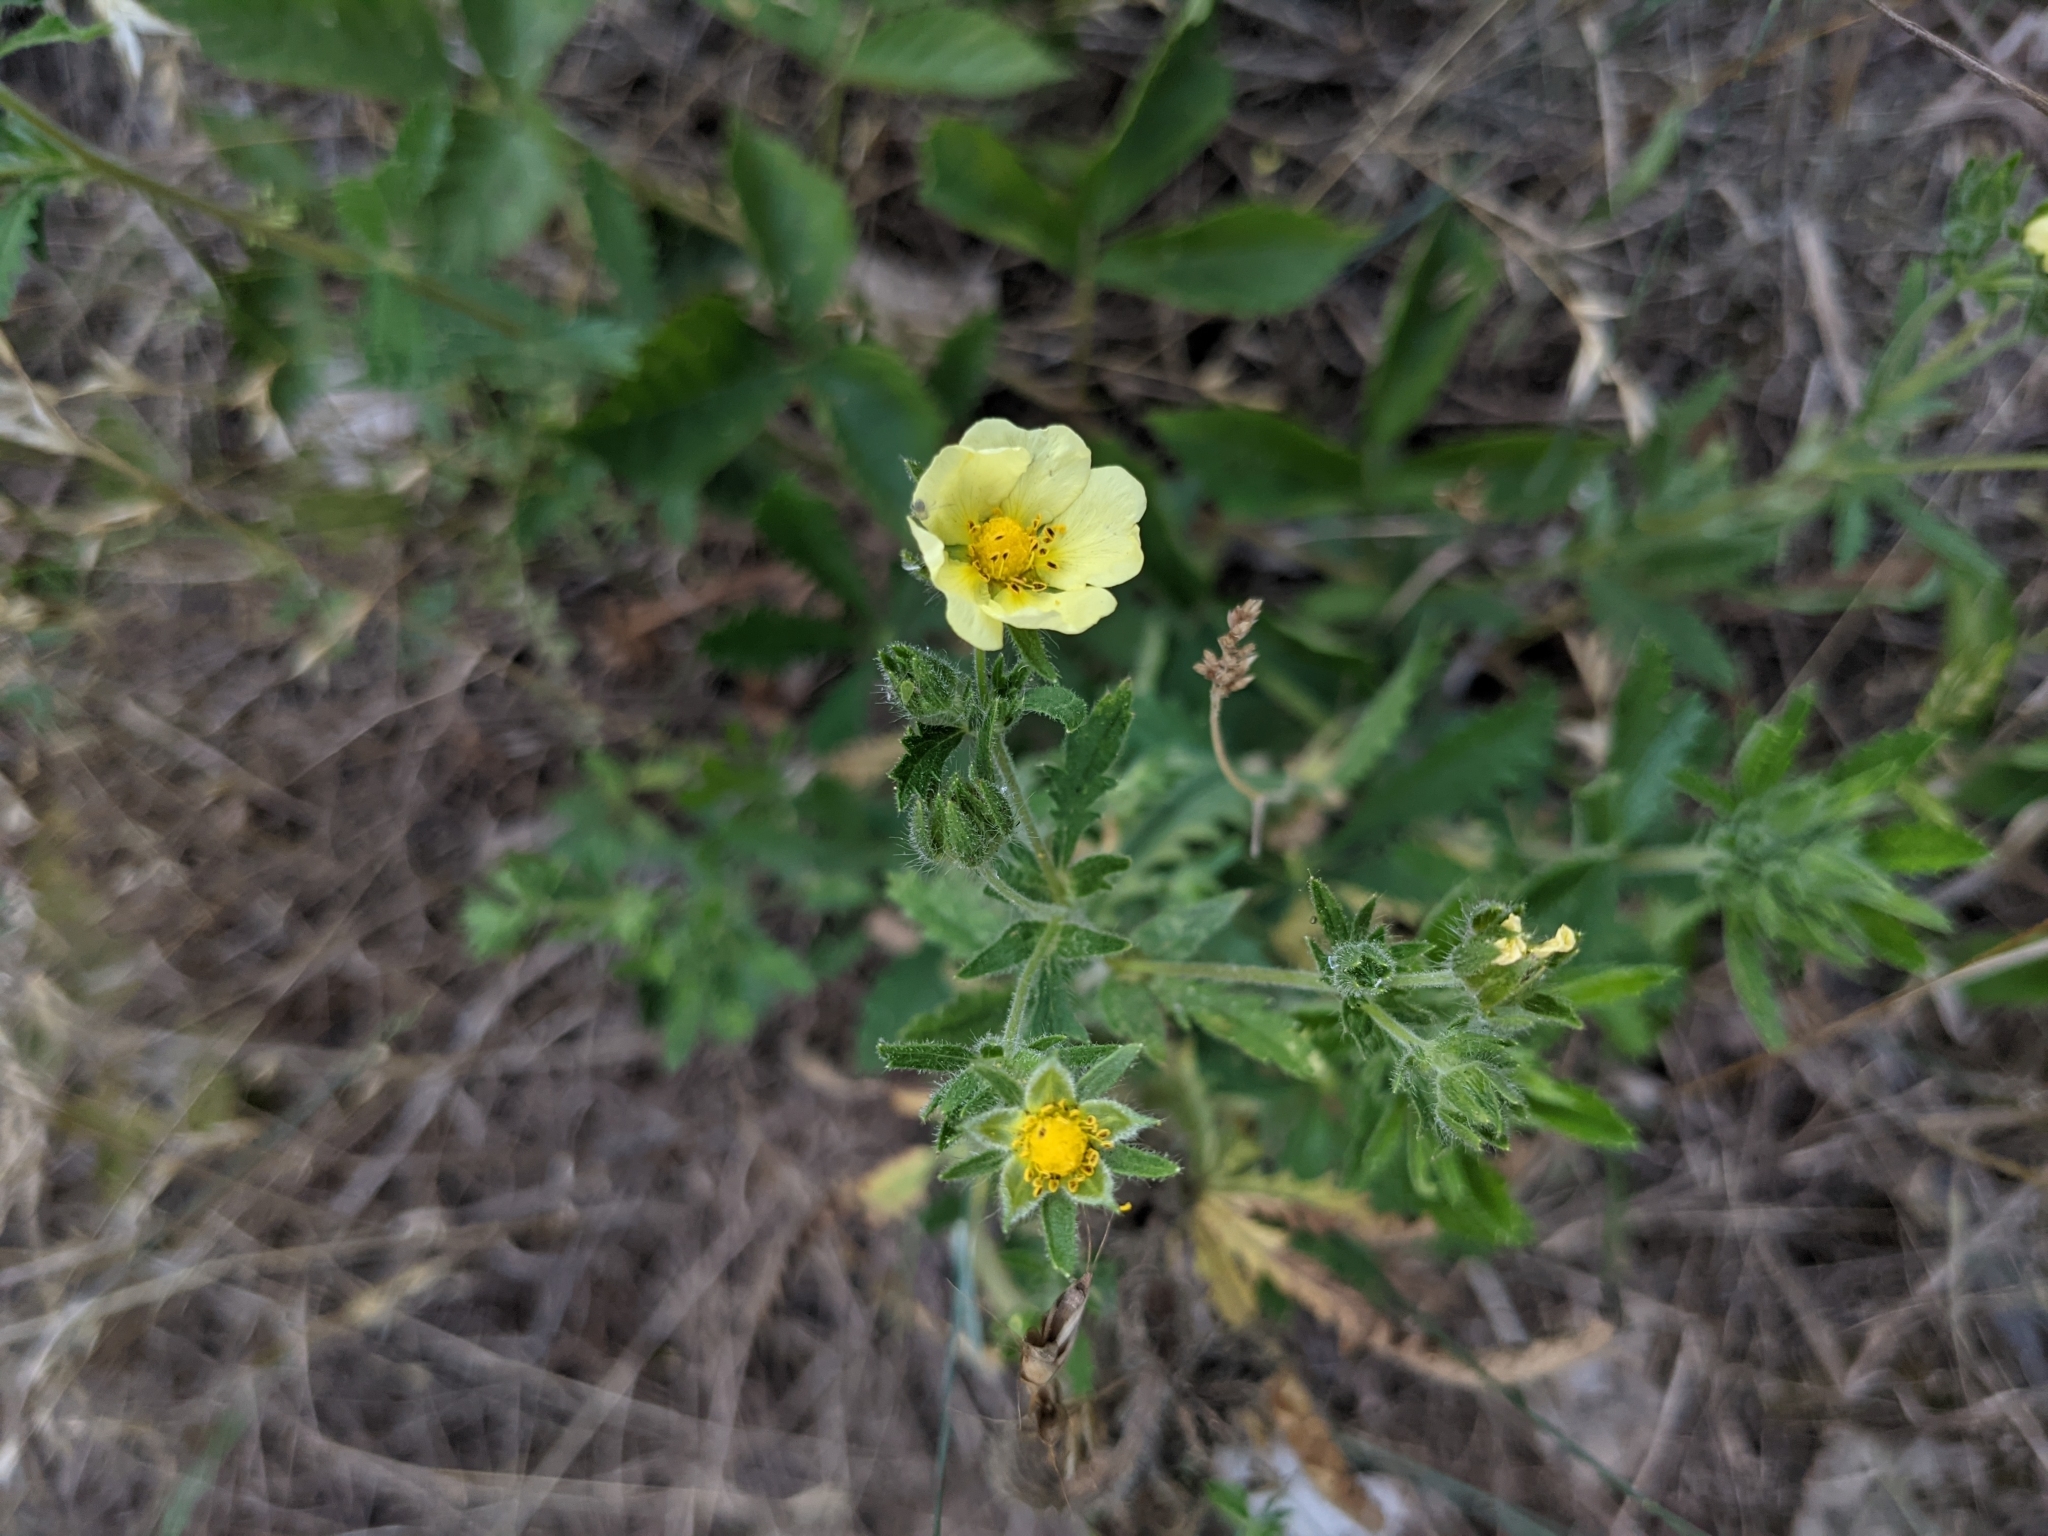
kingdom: Plantae
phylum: Tracheophyta
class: Magnoliopsida
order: Rosales
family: Rosaceae
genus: Potentilla
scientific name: Potentilla recta
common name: Sulphur cinquefoil
